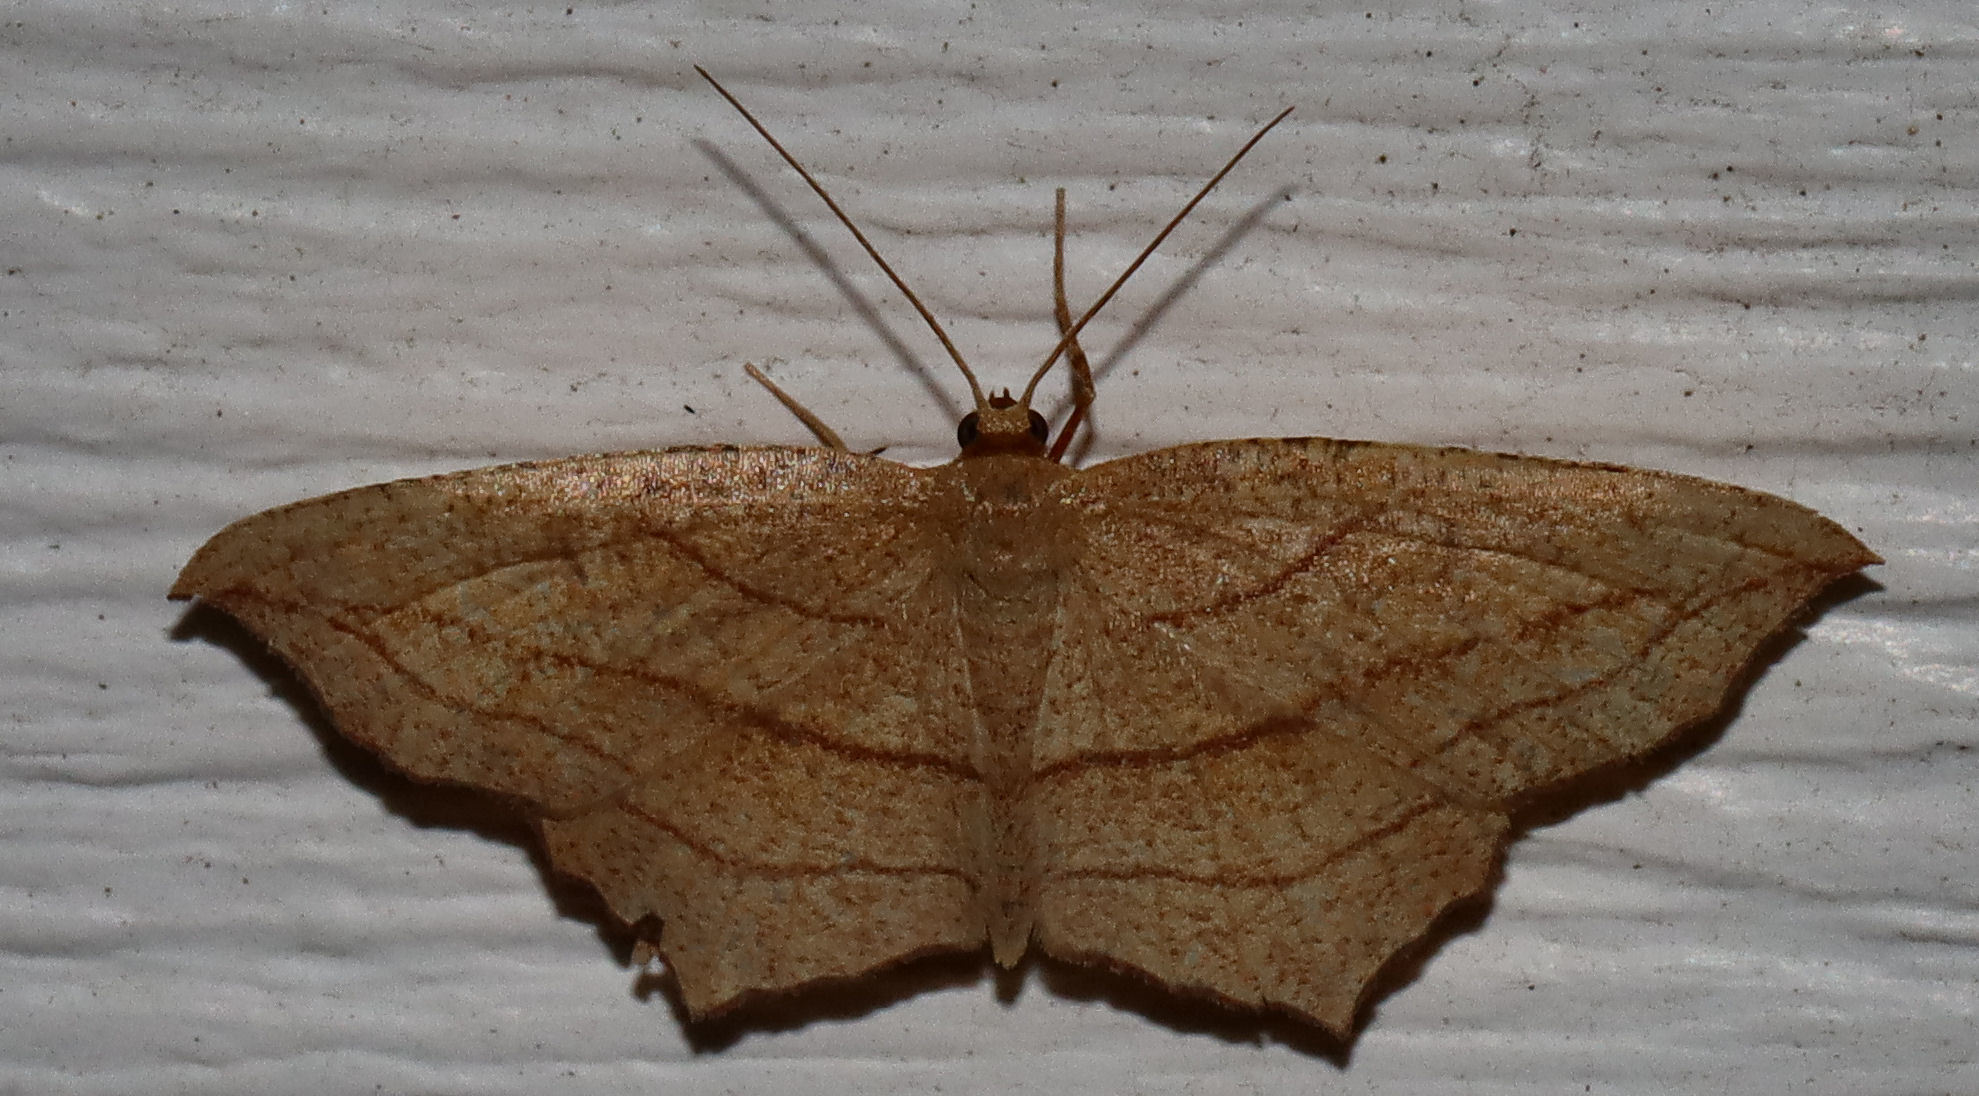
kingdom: Animalia
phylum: Arthropoda
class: Insecta
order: Lepidoptera
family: Geometridae
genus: Timandra
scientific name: Timandra amaturaria
